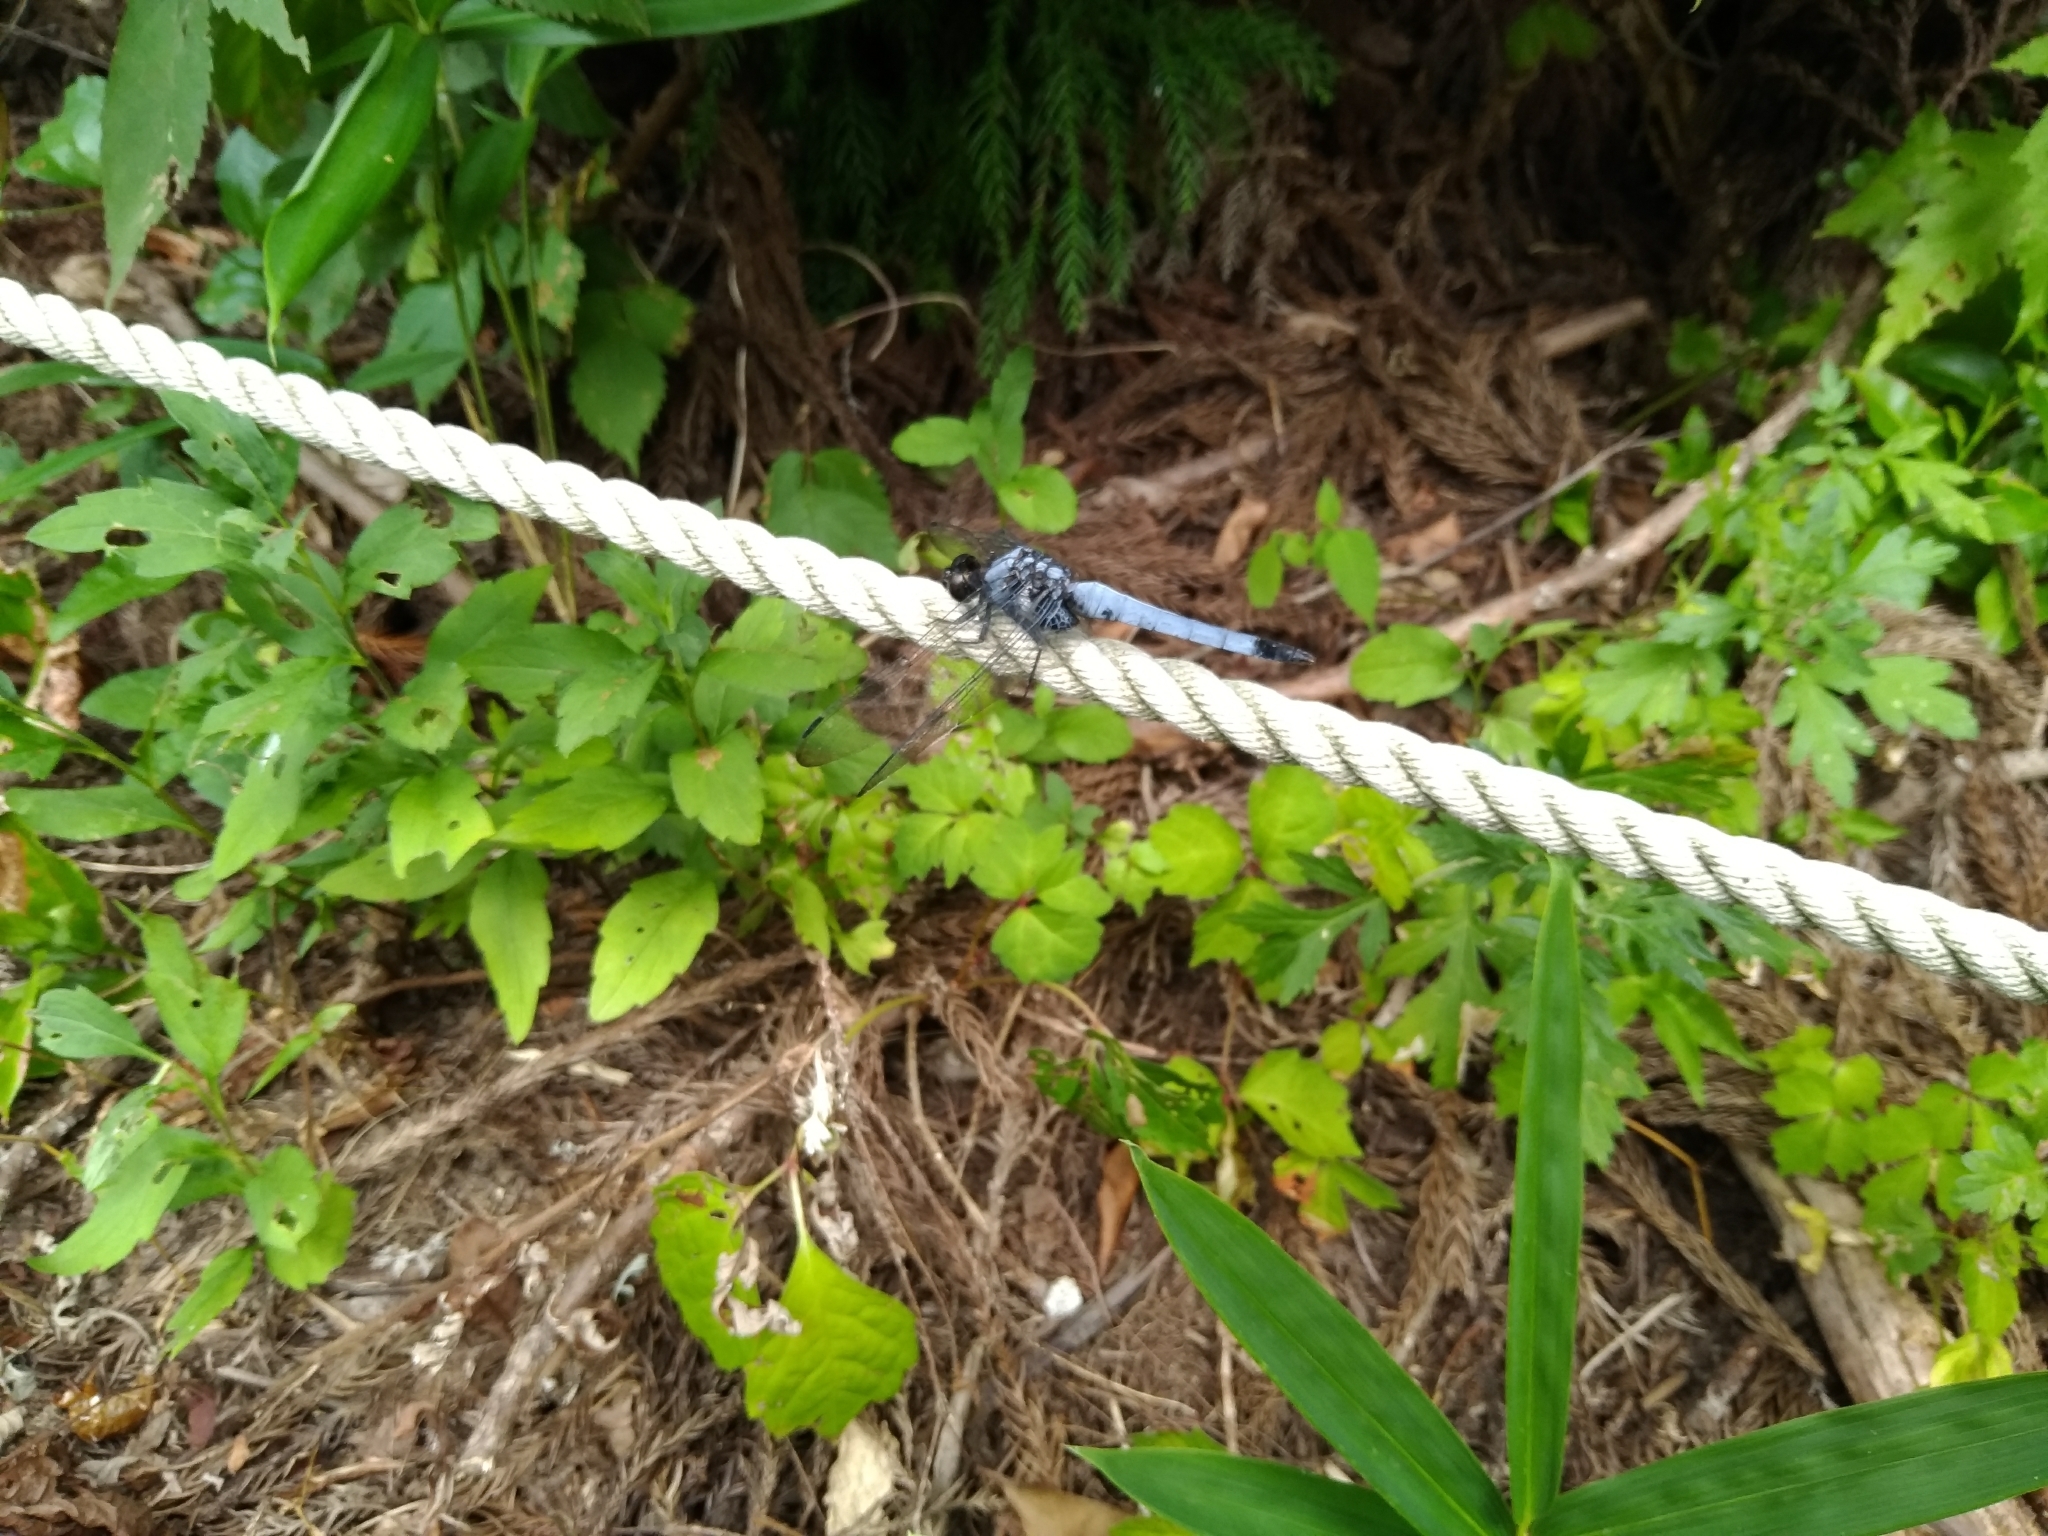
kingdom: Animalia
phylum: Arthropoda
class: Insecta
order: Odonata
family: Libellulidae
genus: Orthetrum
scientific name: Orthetrum melania
